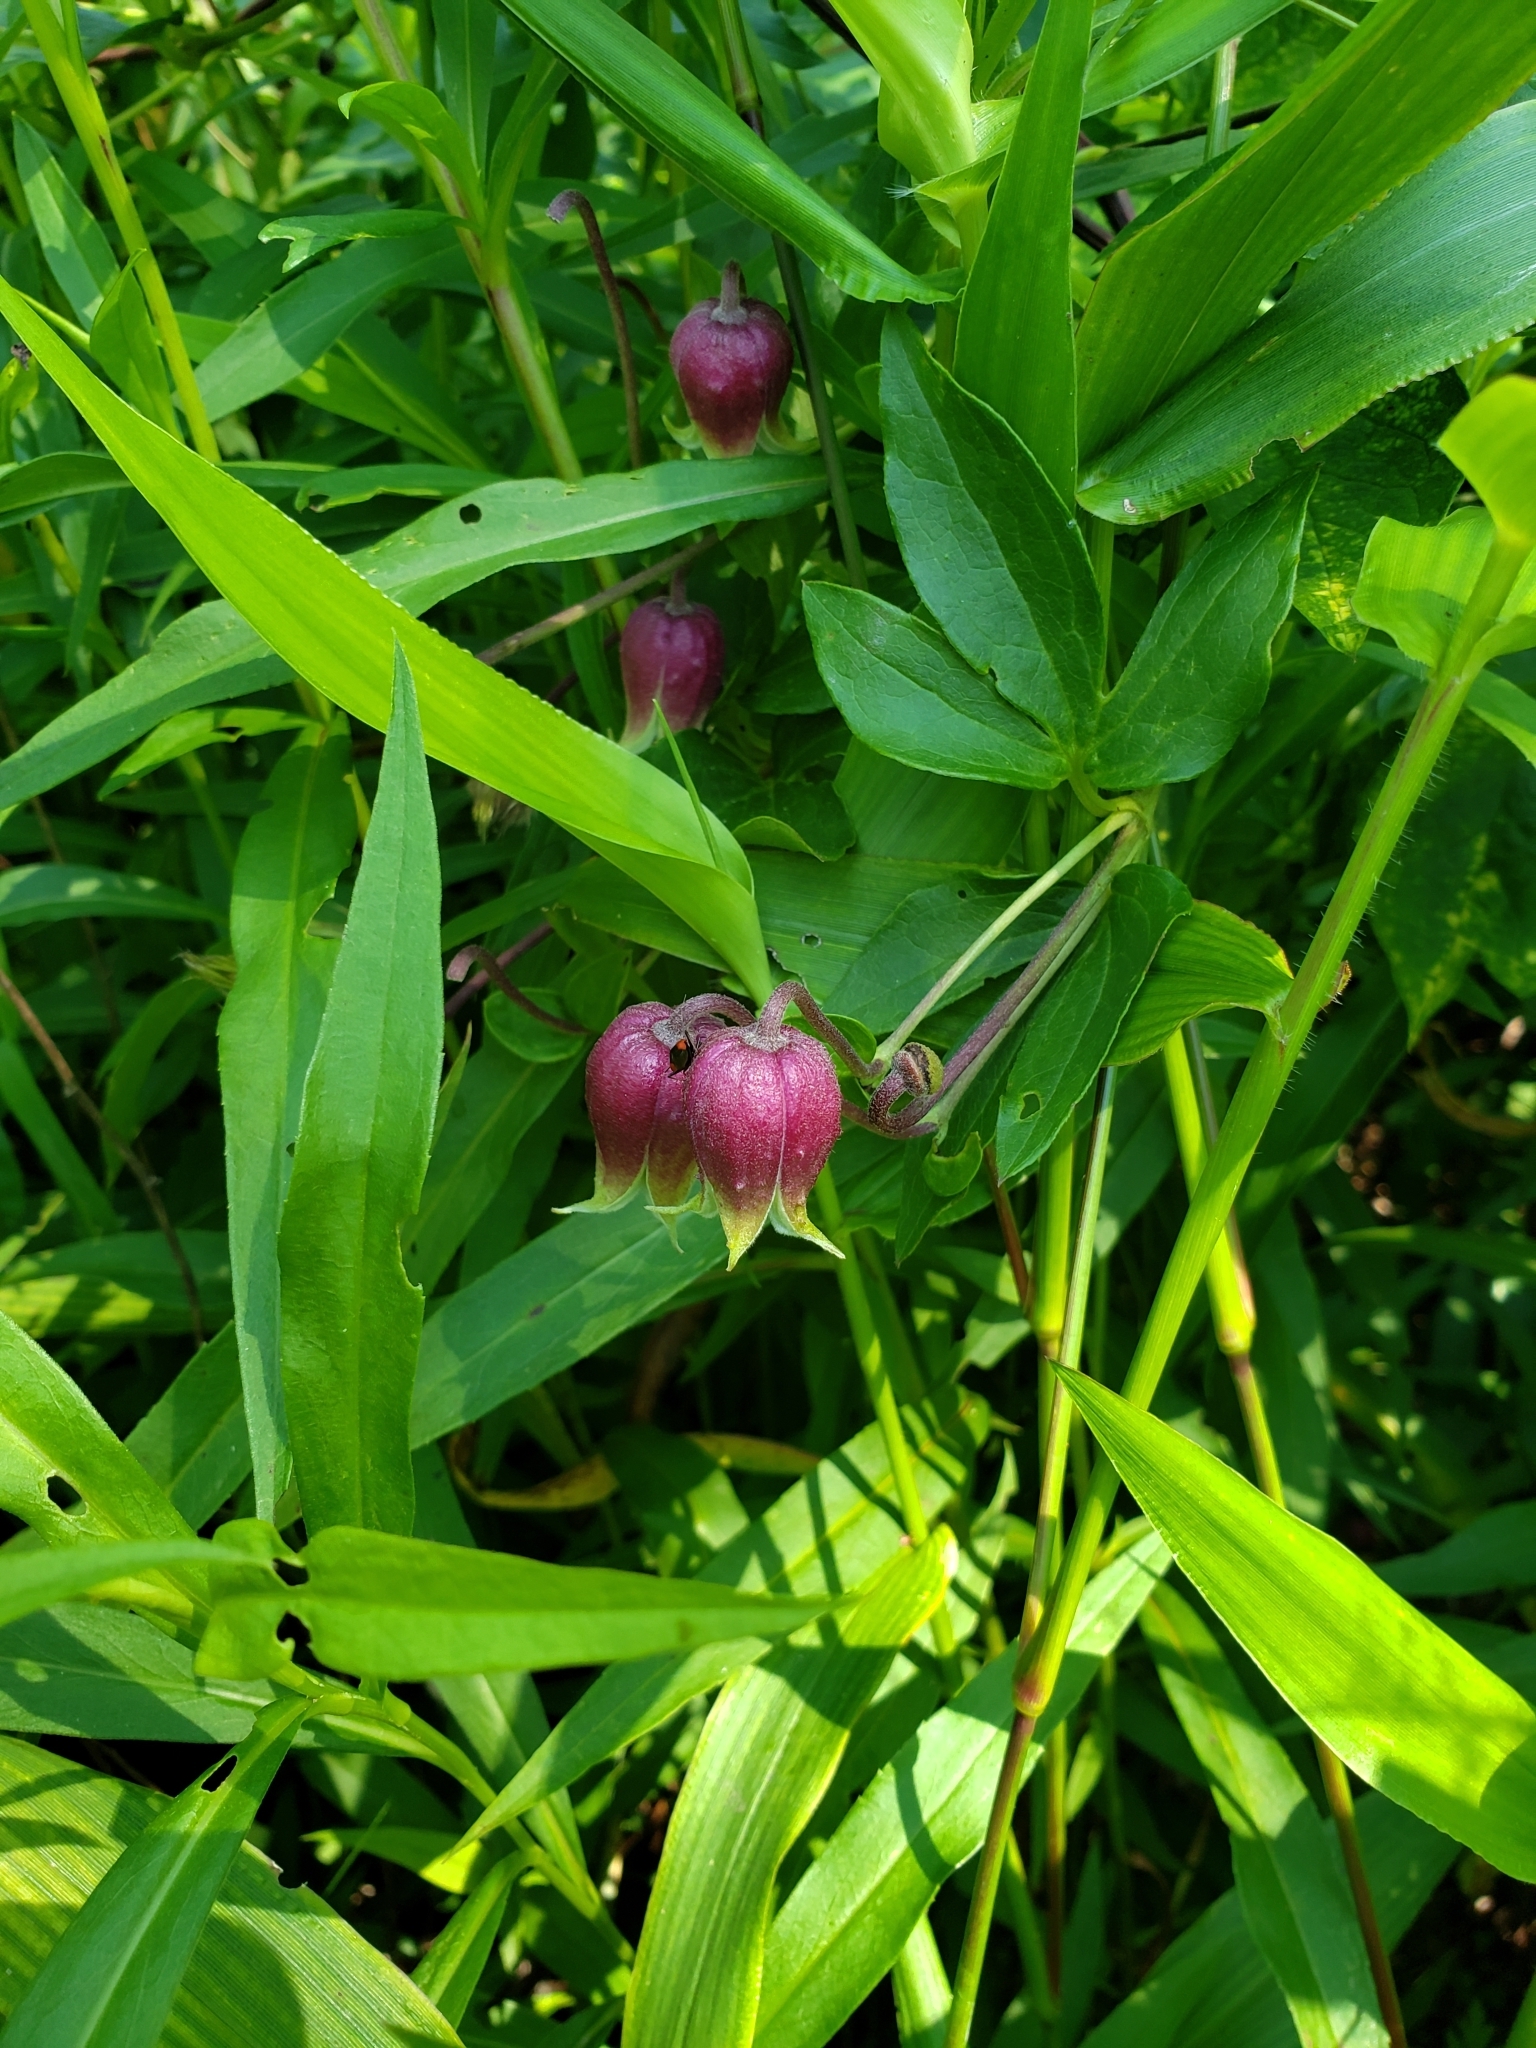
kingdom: Plantae
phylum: Tracheophyta
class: Magnoliopsida
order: Ranunculales
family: Ranunculaceae
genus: Clematis
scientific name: Clematis viorna
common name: Leather-flower
